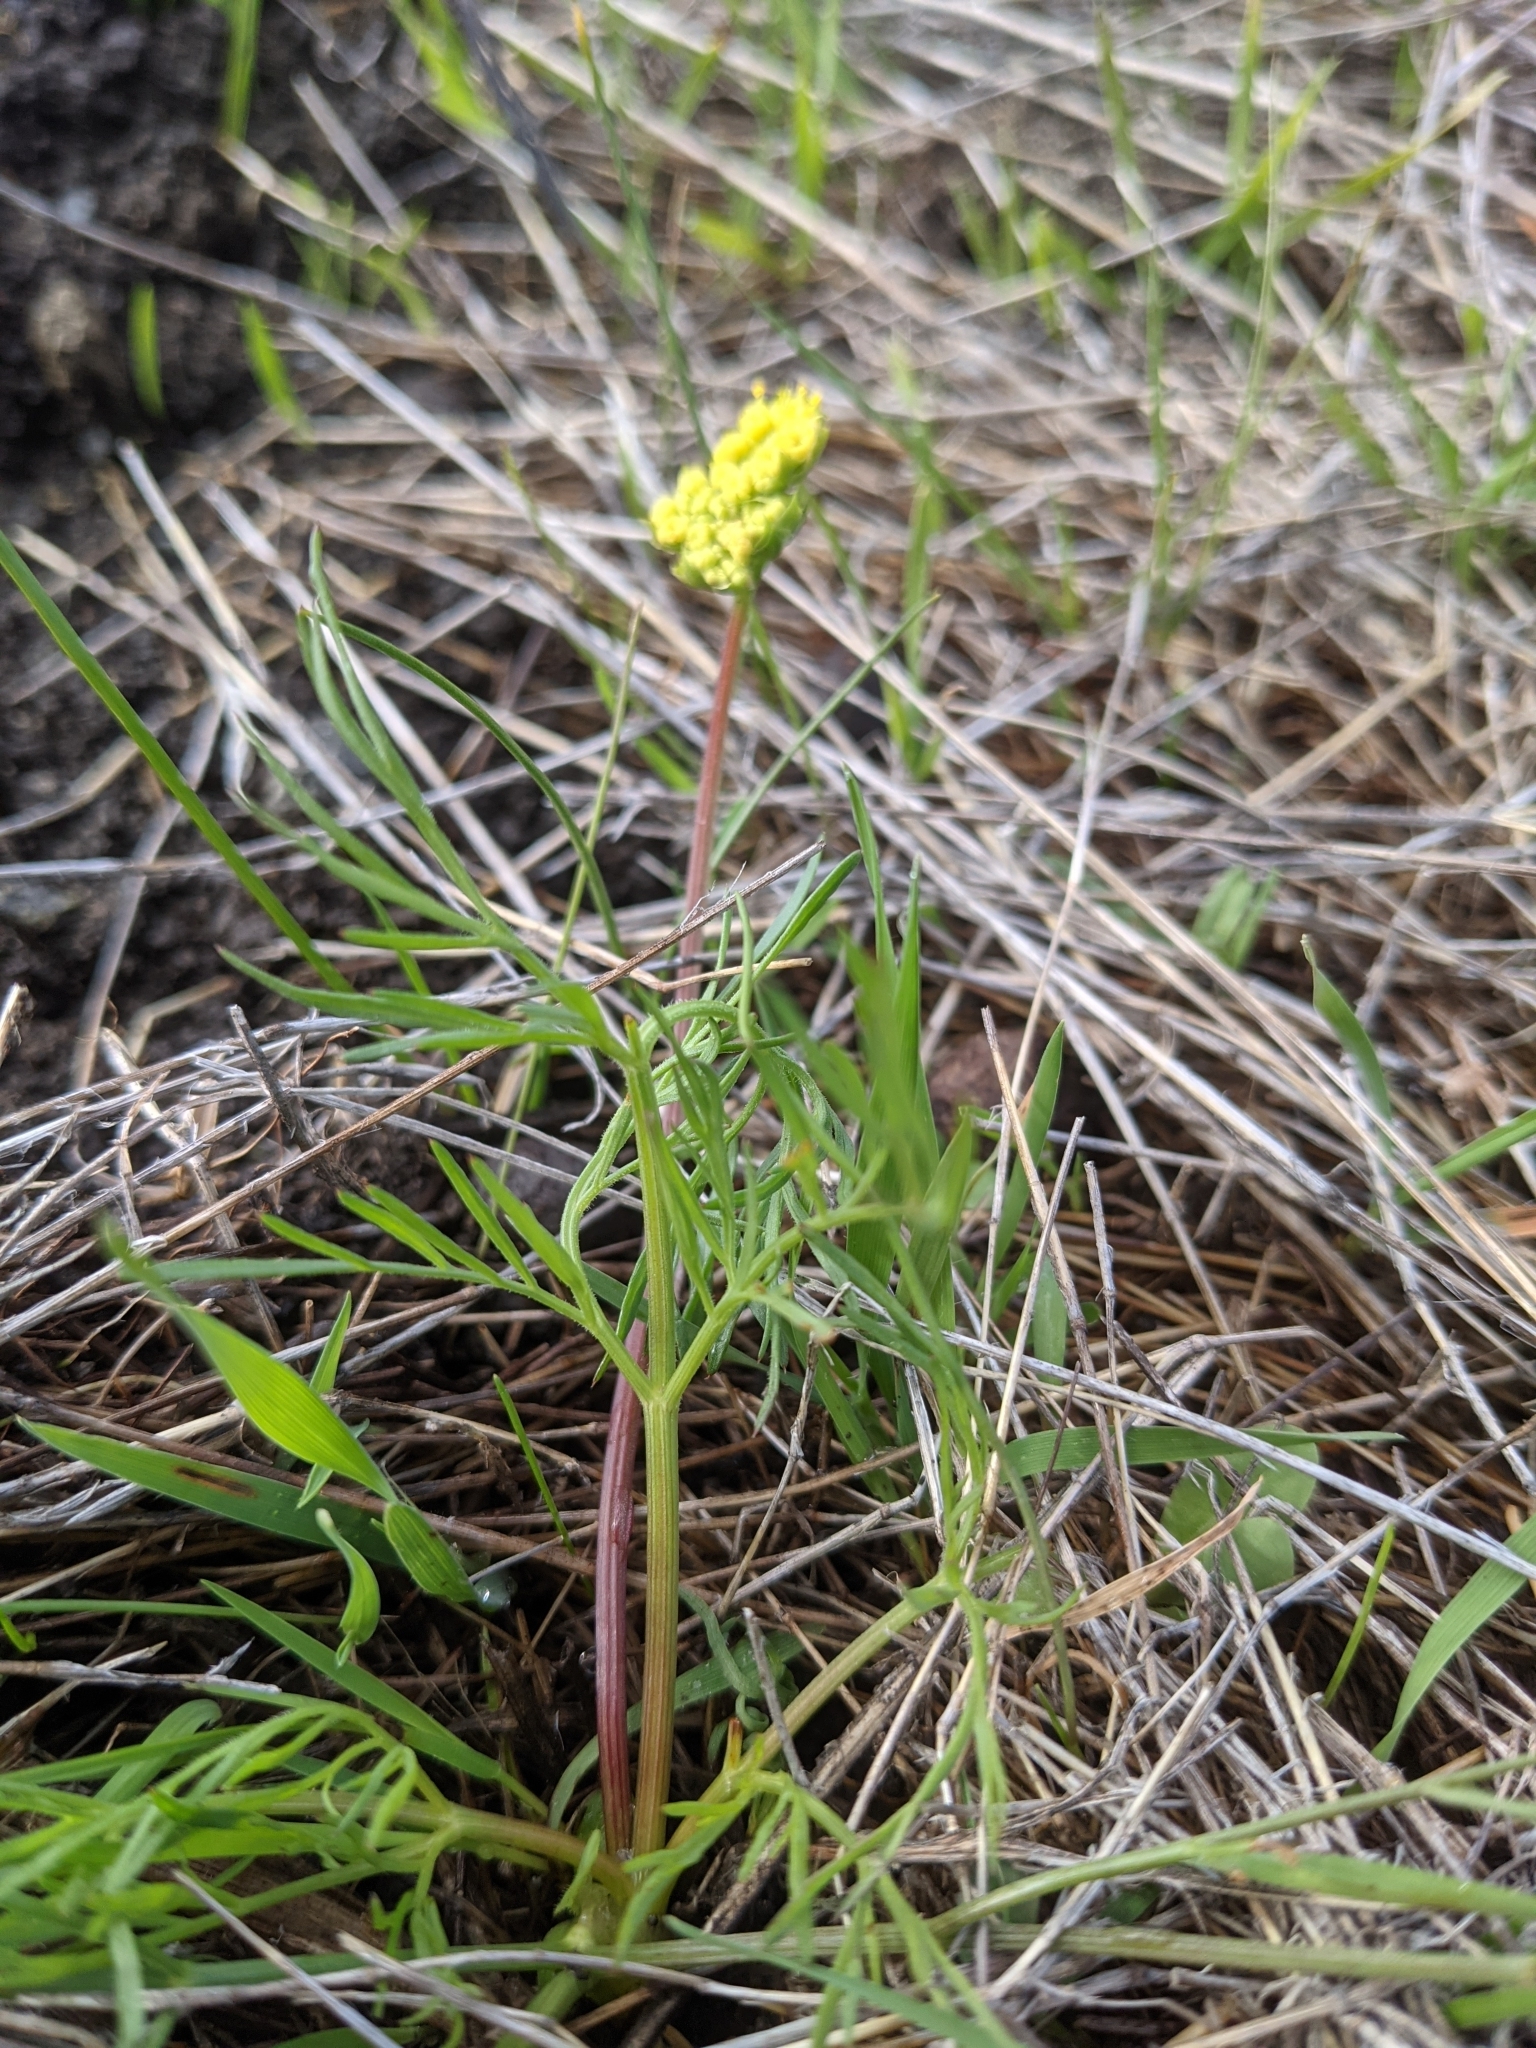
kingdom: Plantae
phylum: Tracheophyta
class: Magnoliopsida
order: Apiales
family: Apiaceae
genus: Lomatium
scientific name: Lomatium caruifolium
